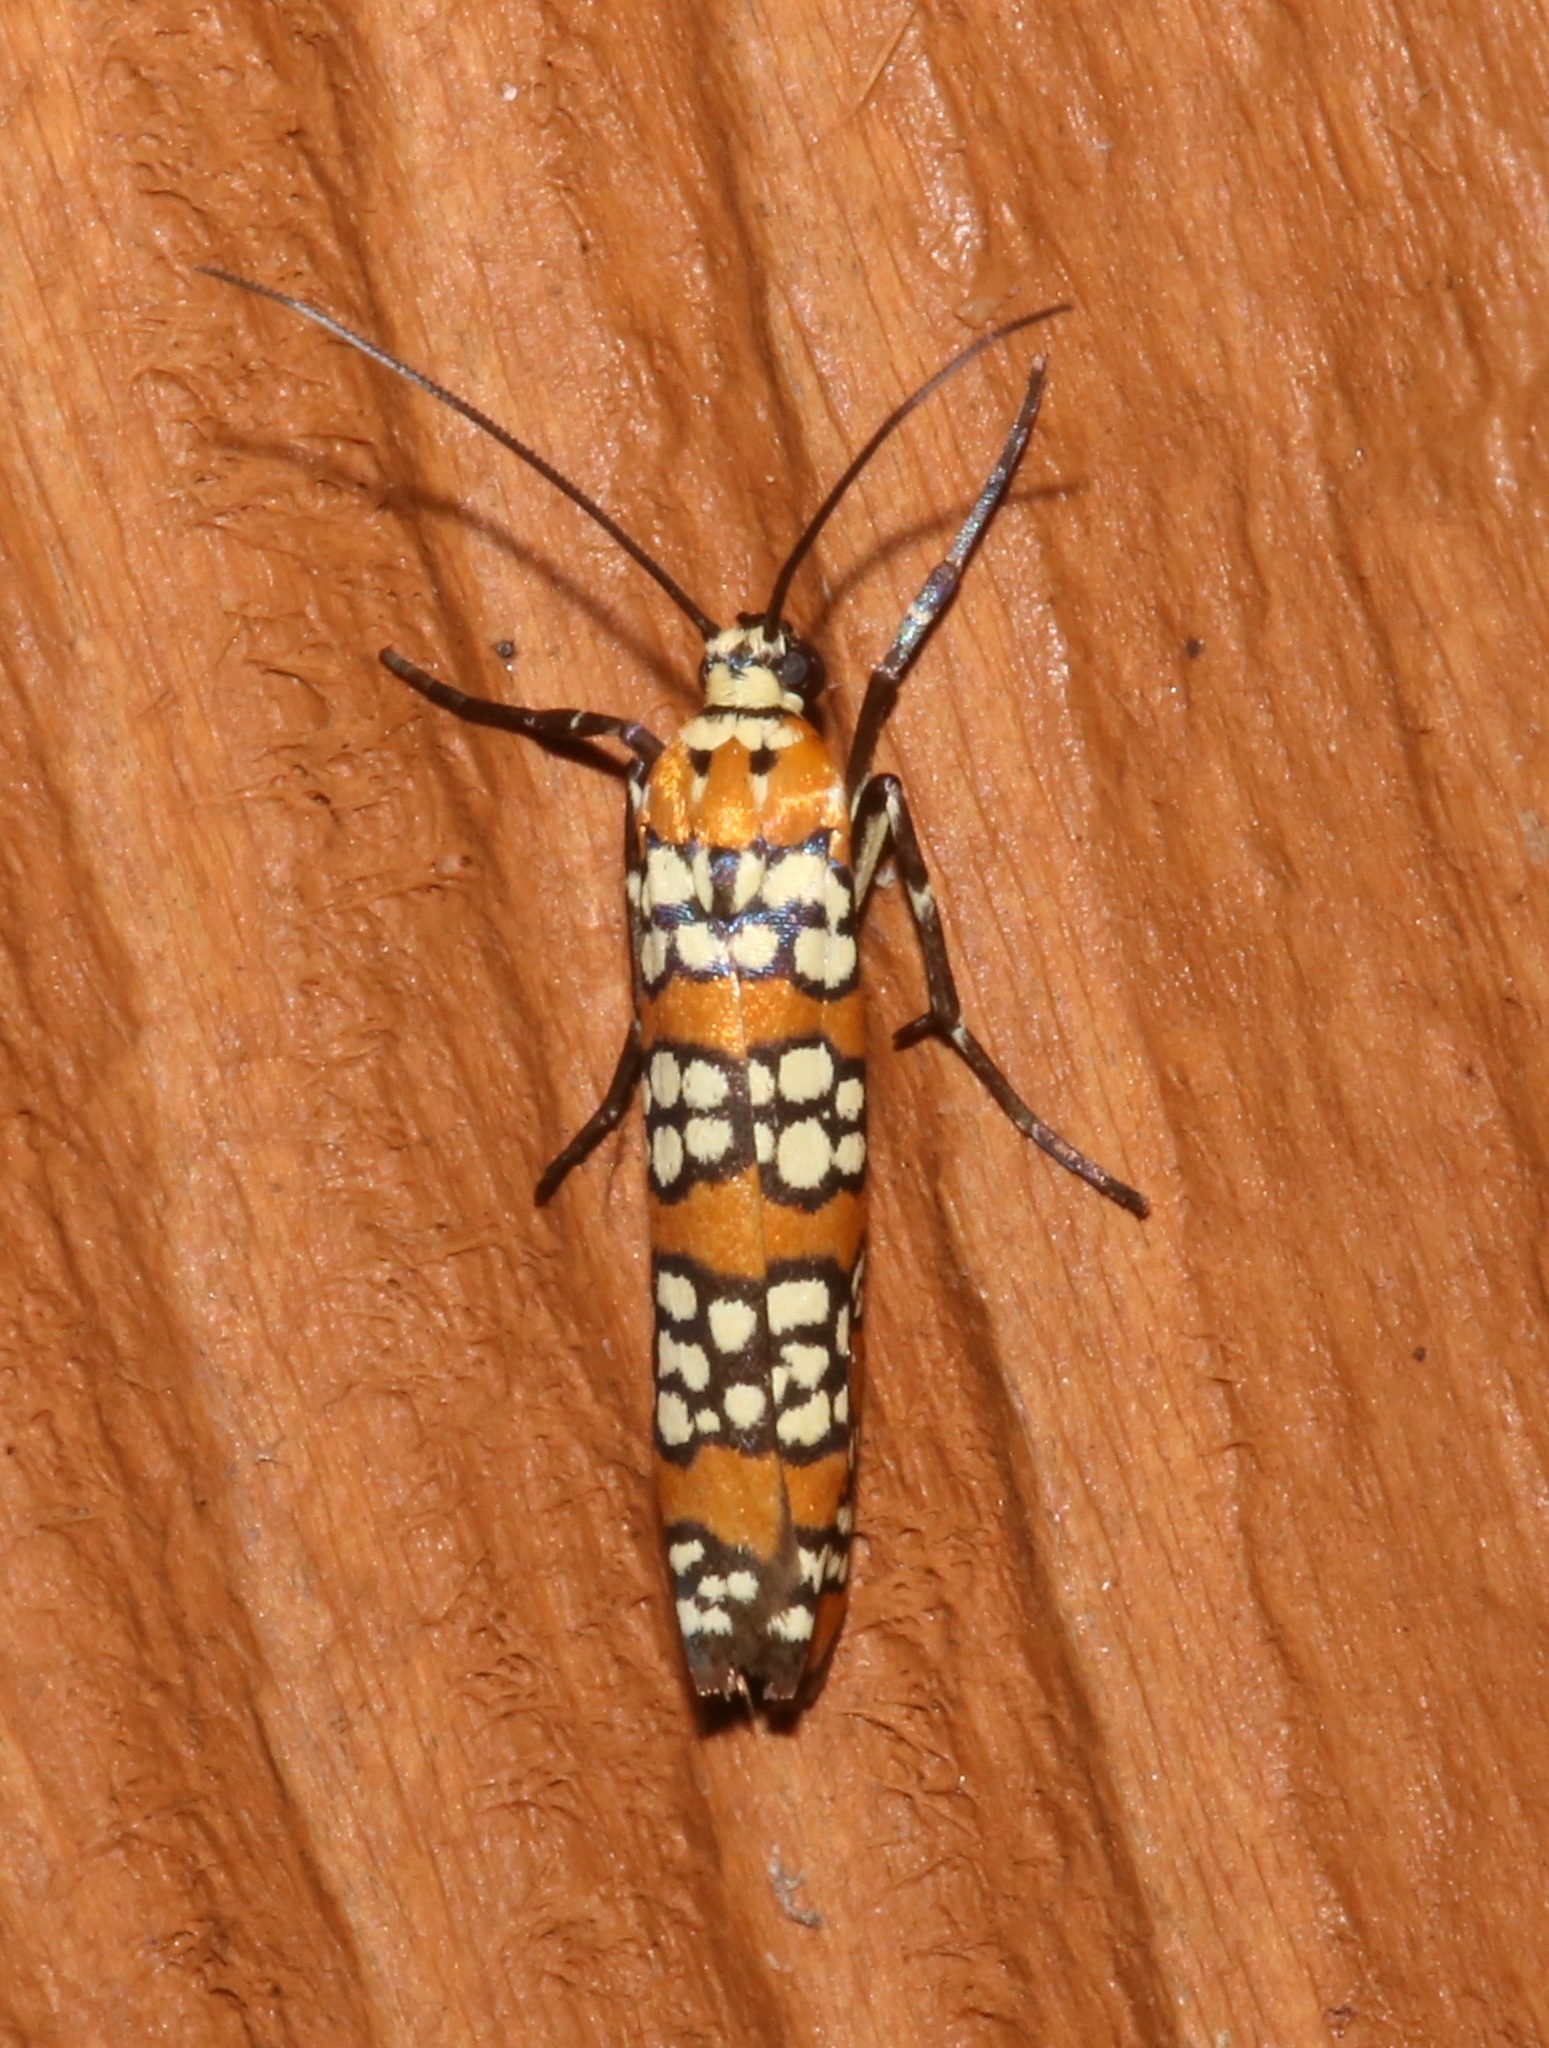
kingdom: Animalia
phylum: Arthropoda
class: Insecta
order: Lepidoptera
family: Attevidae
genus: Atteva
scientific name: Atteva punctella
